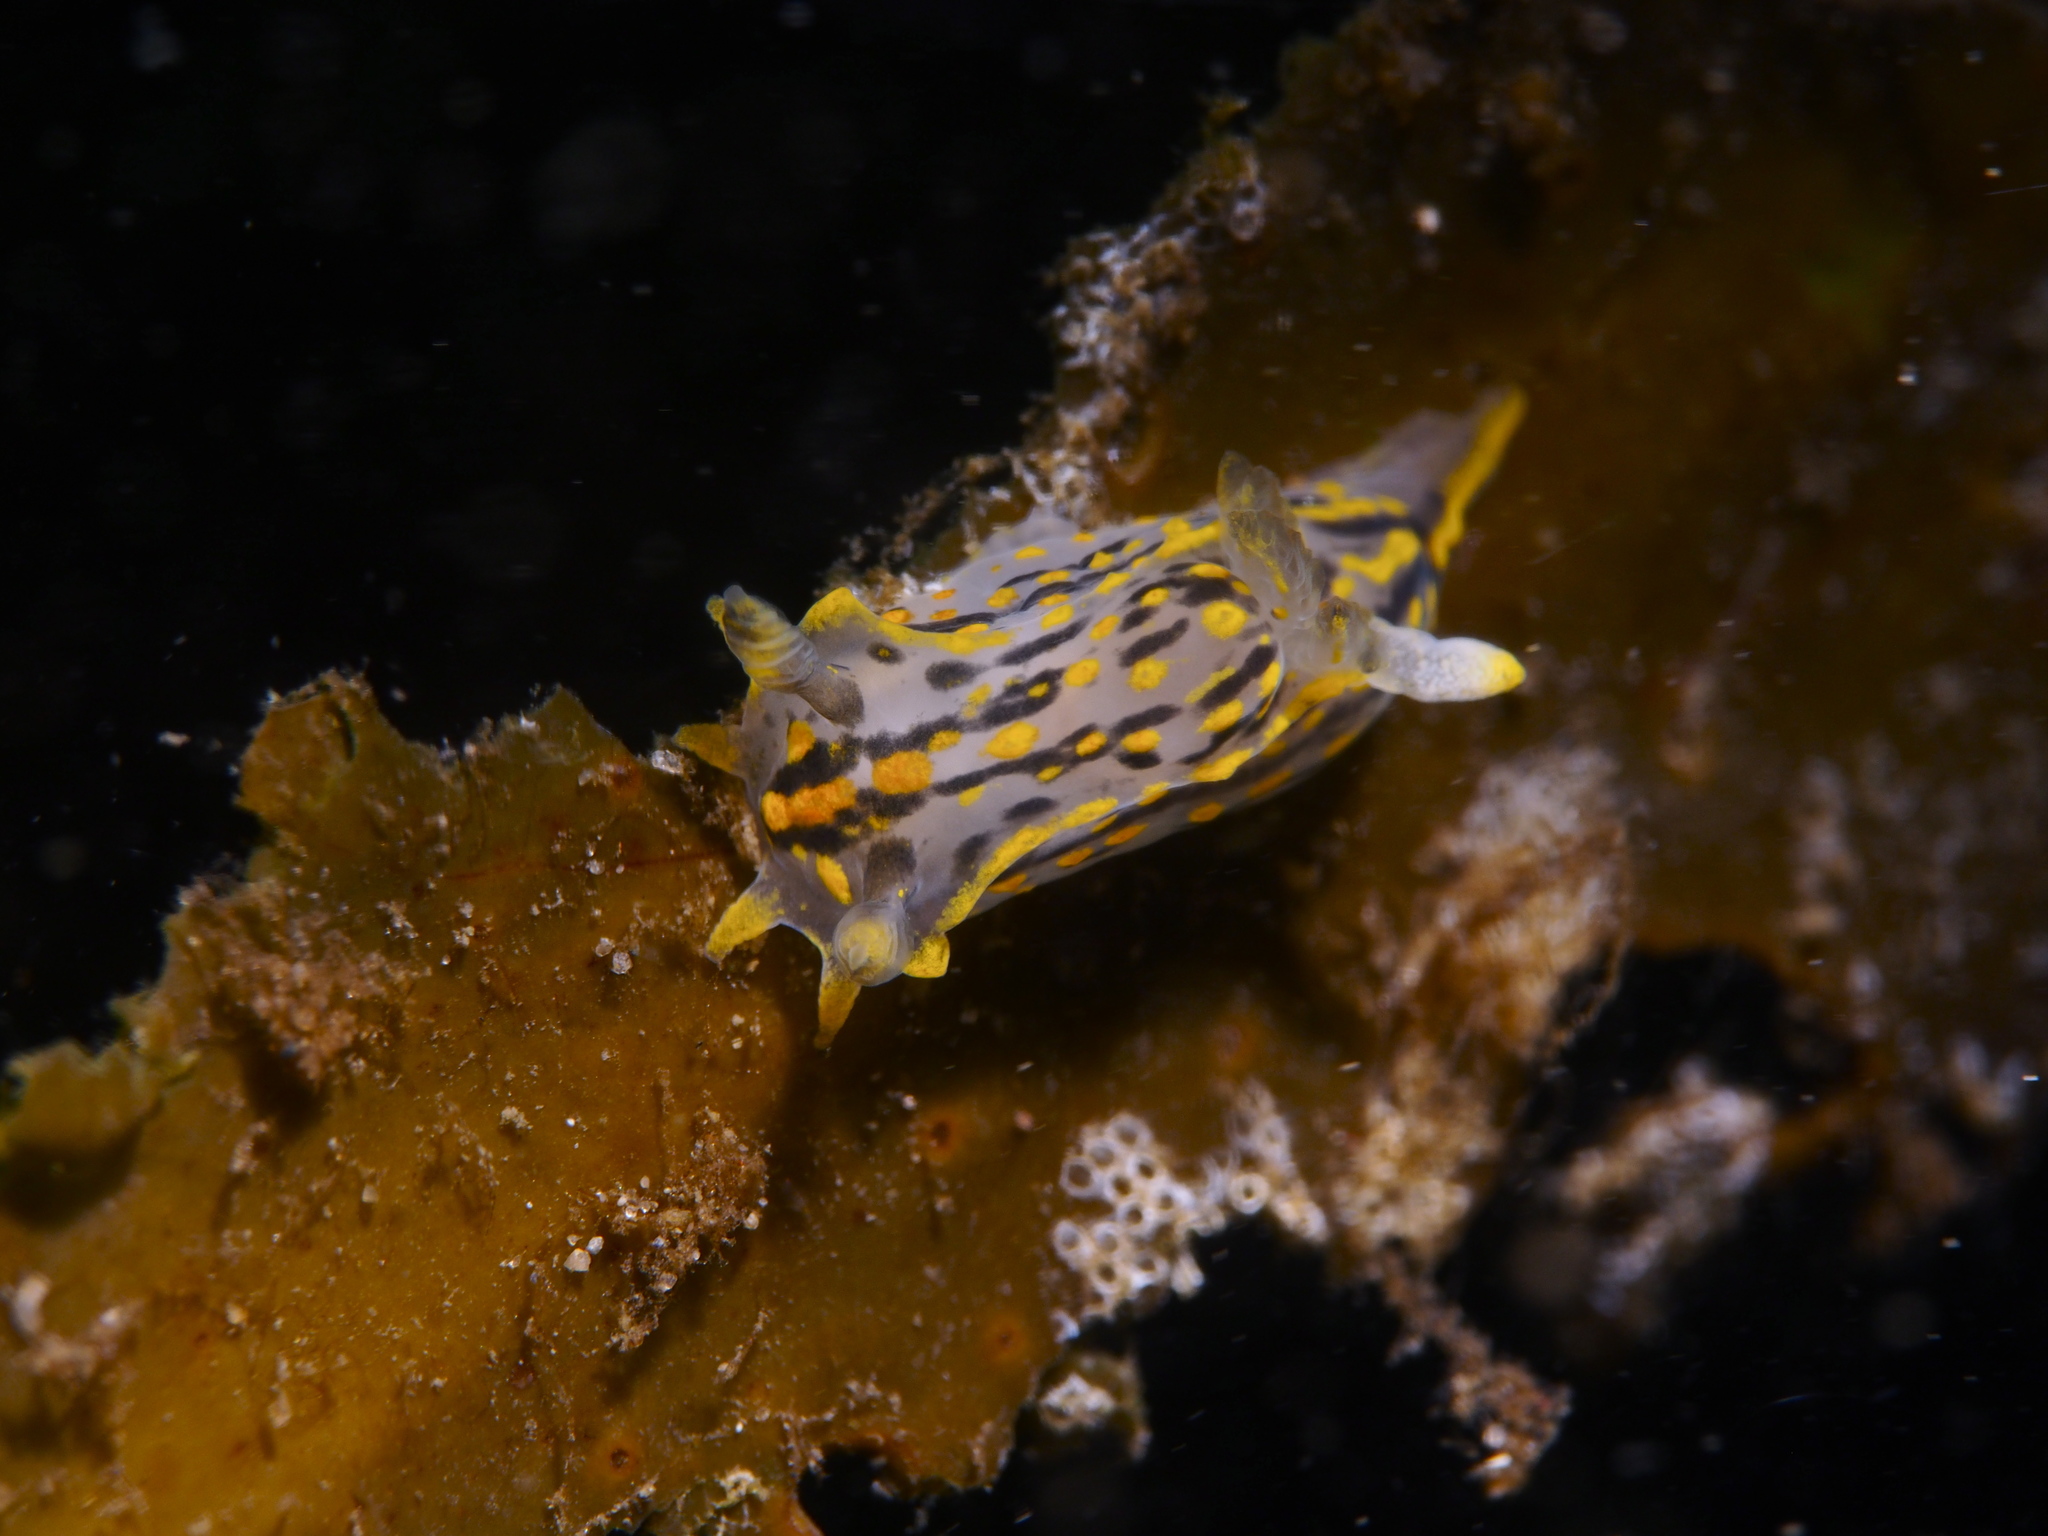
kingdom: Animalia
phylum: Mollusca
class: Gastropoda
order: Nudibranchia
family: Polyceridae
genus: Polycera
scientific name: Polycera quadrilineata
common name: Four-striped polycera
